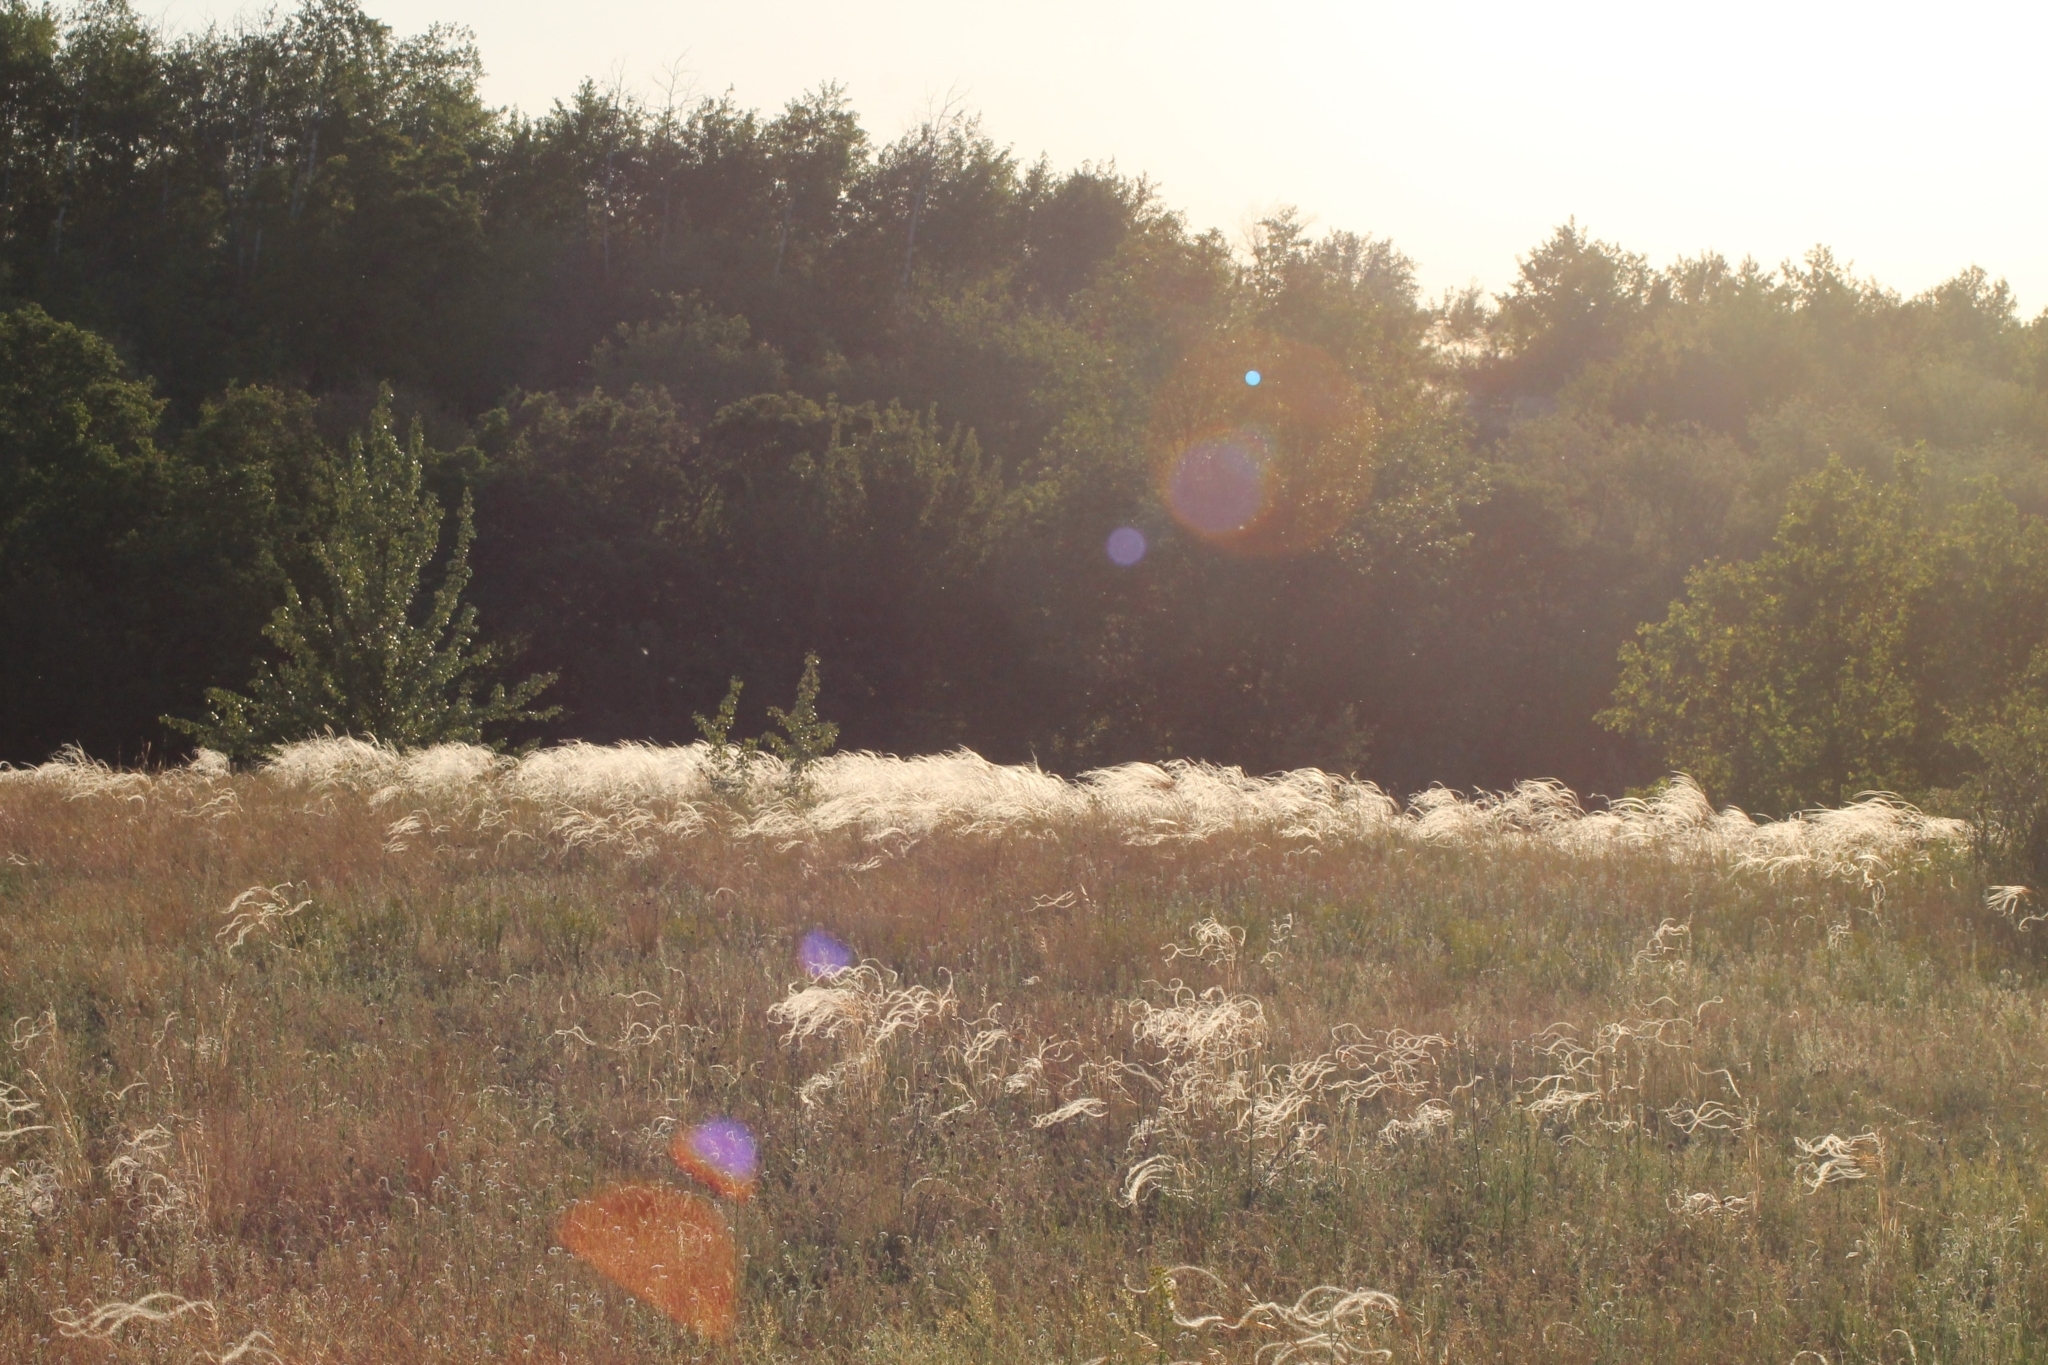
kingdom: Plantae
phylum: Tracheophyta
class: Liliopsida
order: Poales
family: Poaceae
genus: Stipa
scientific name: Stipa pennata
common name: European feather grass
